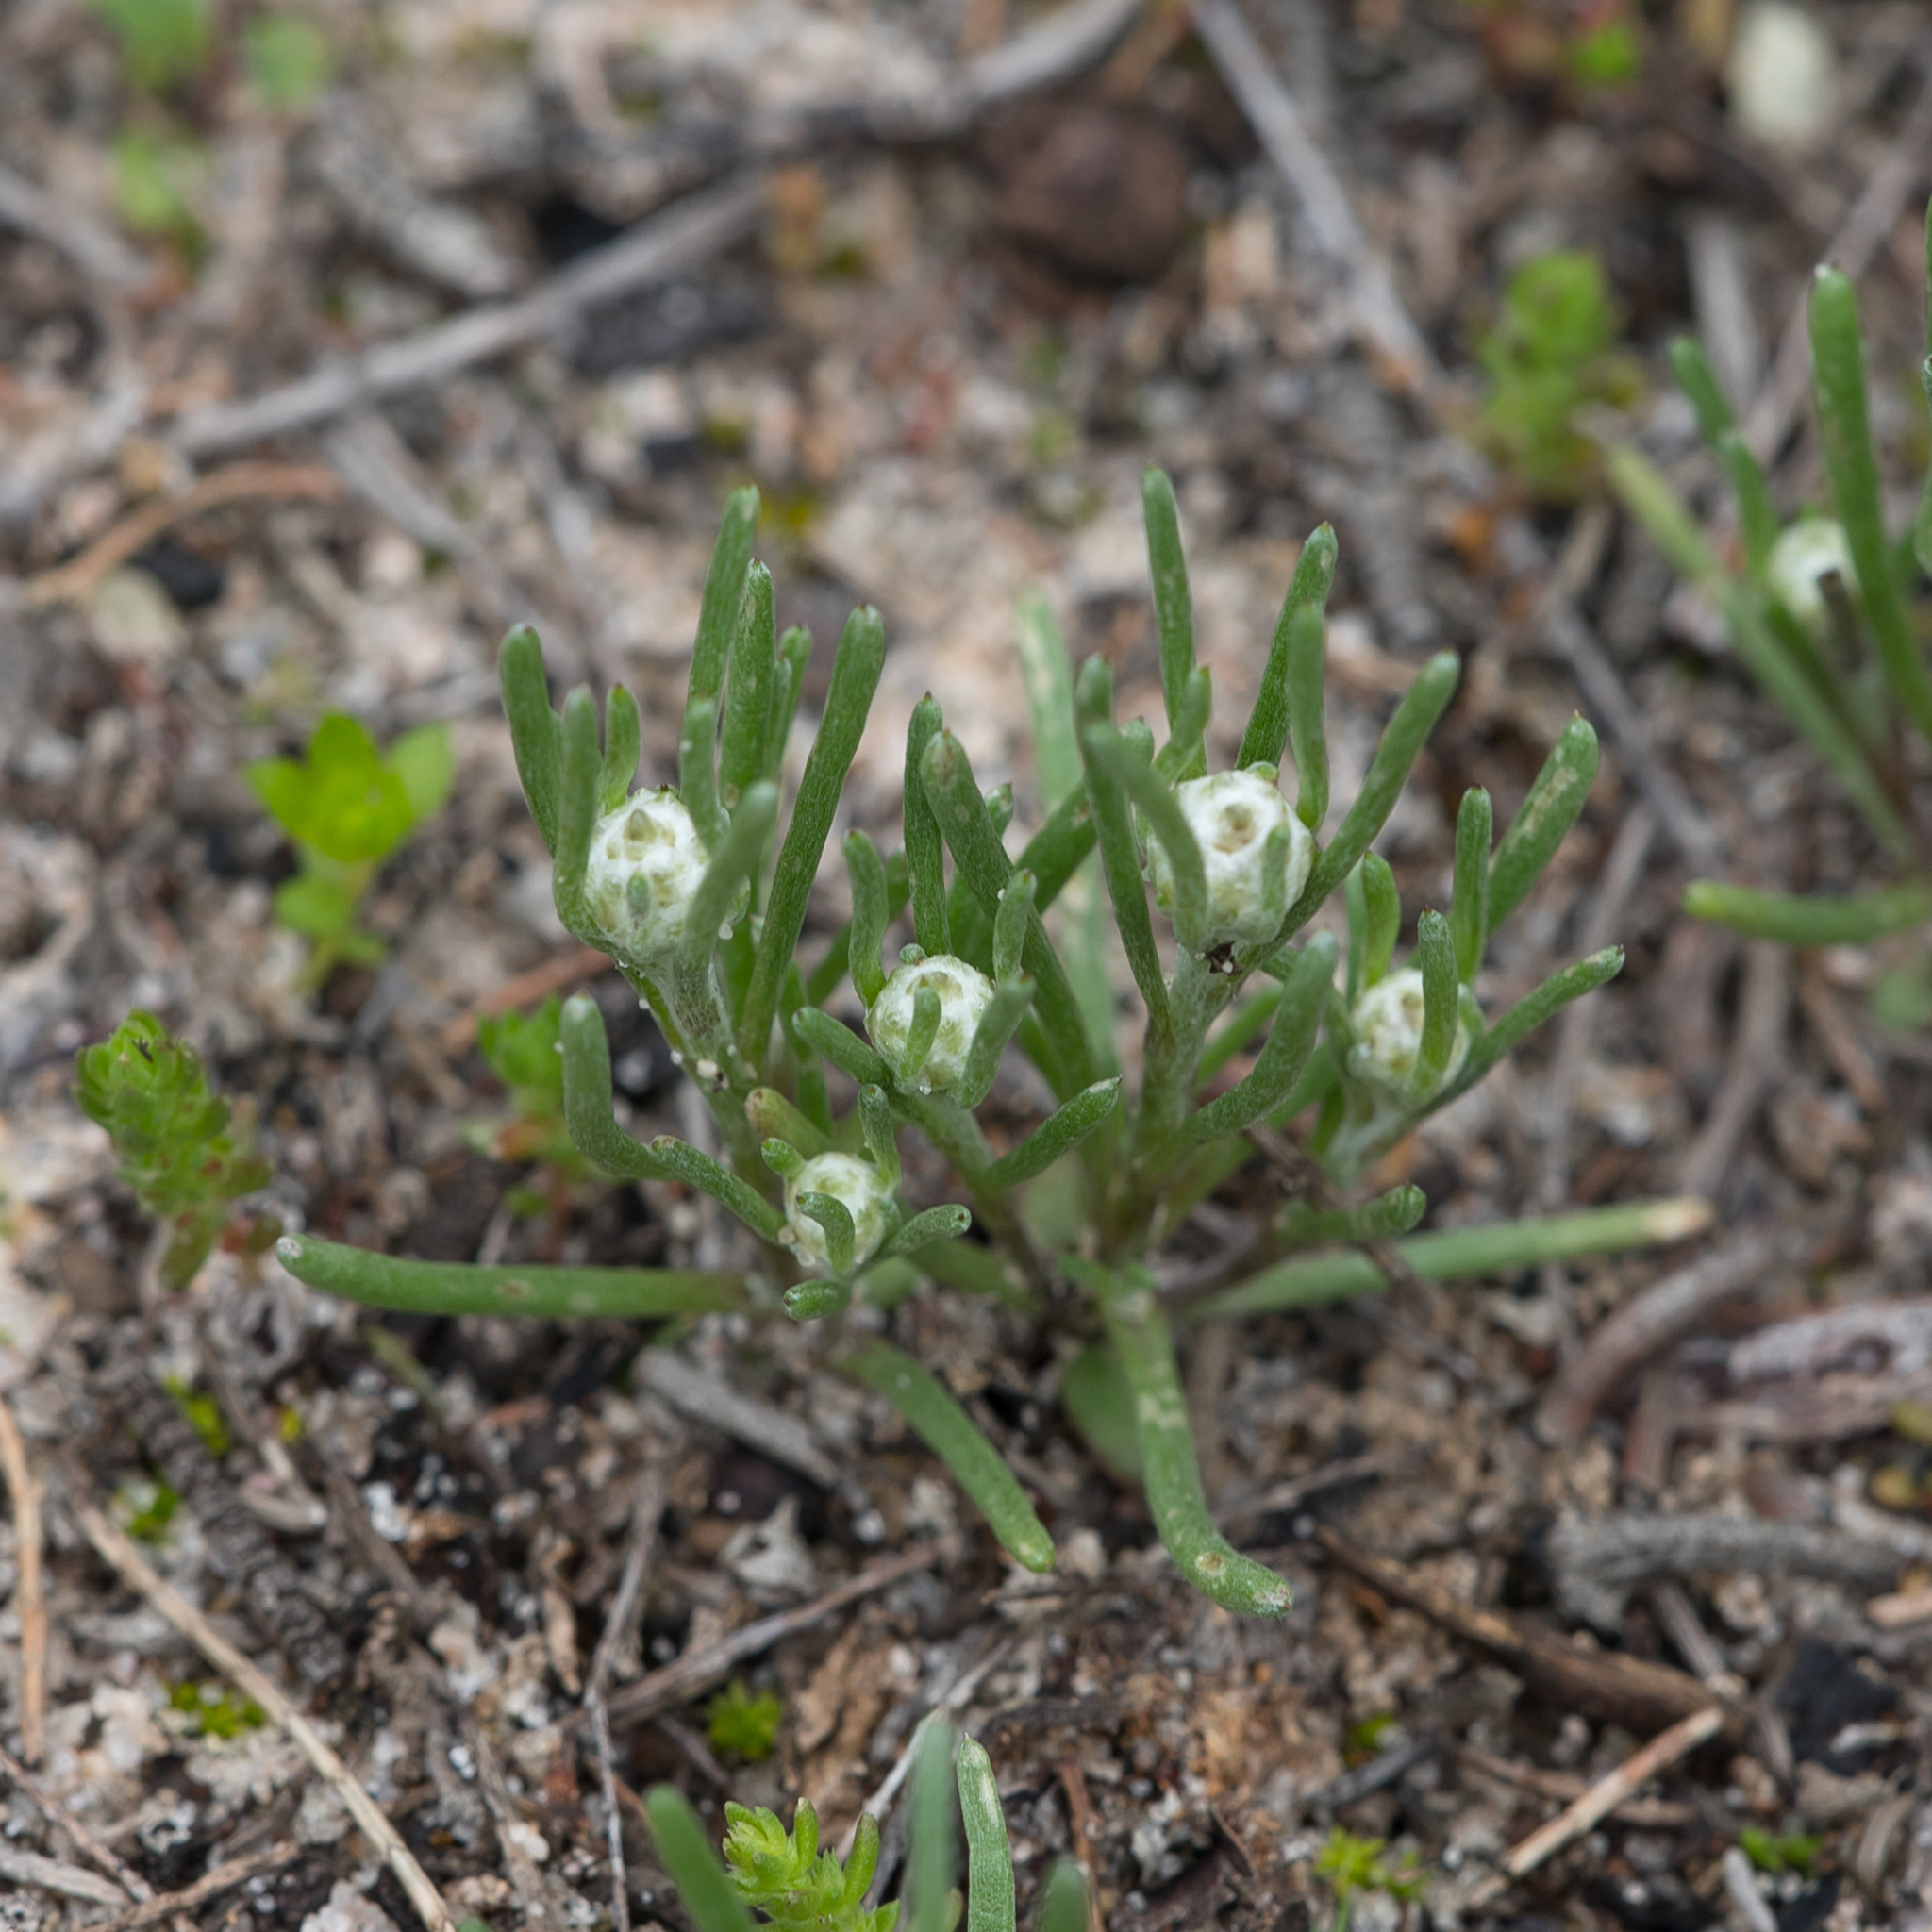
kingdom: Plantae
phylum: Tracheophyta
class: Magnoliopsida
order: Asterales
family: Asteraceae
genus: Blennospora
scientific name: Blennospora drummondii
